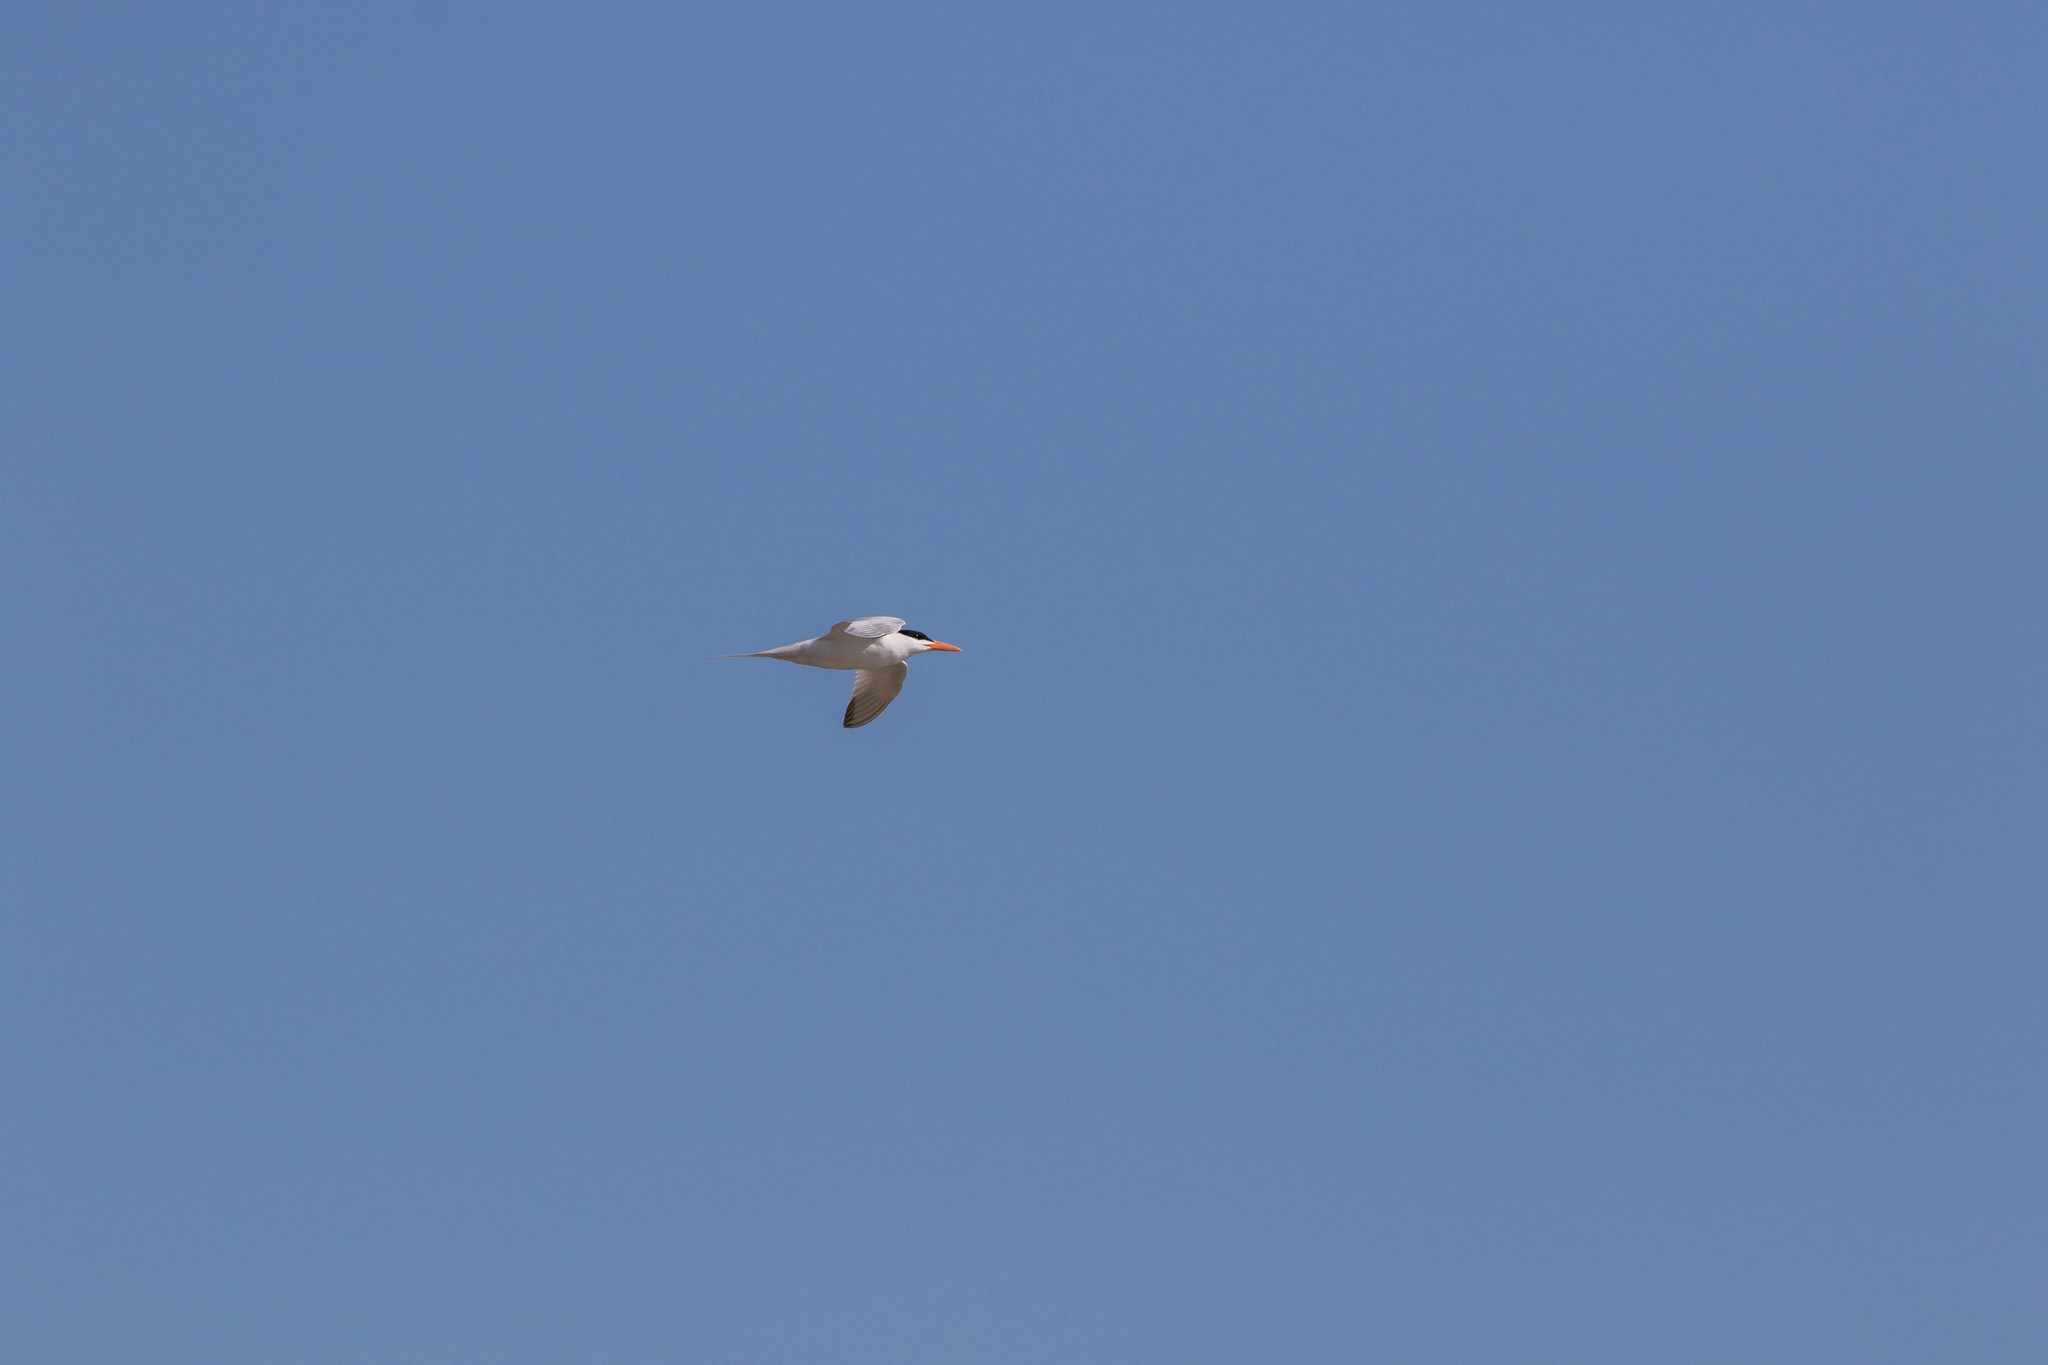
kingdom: Animalia
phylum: Chordata
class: Aves
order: Charadriiformes
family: Laridae
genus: Thalasseus
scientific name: Thalasseus maximus
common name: Royal tern
